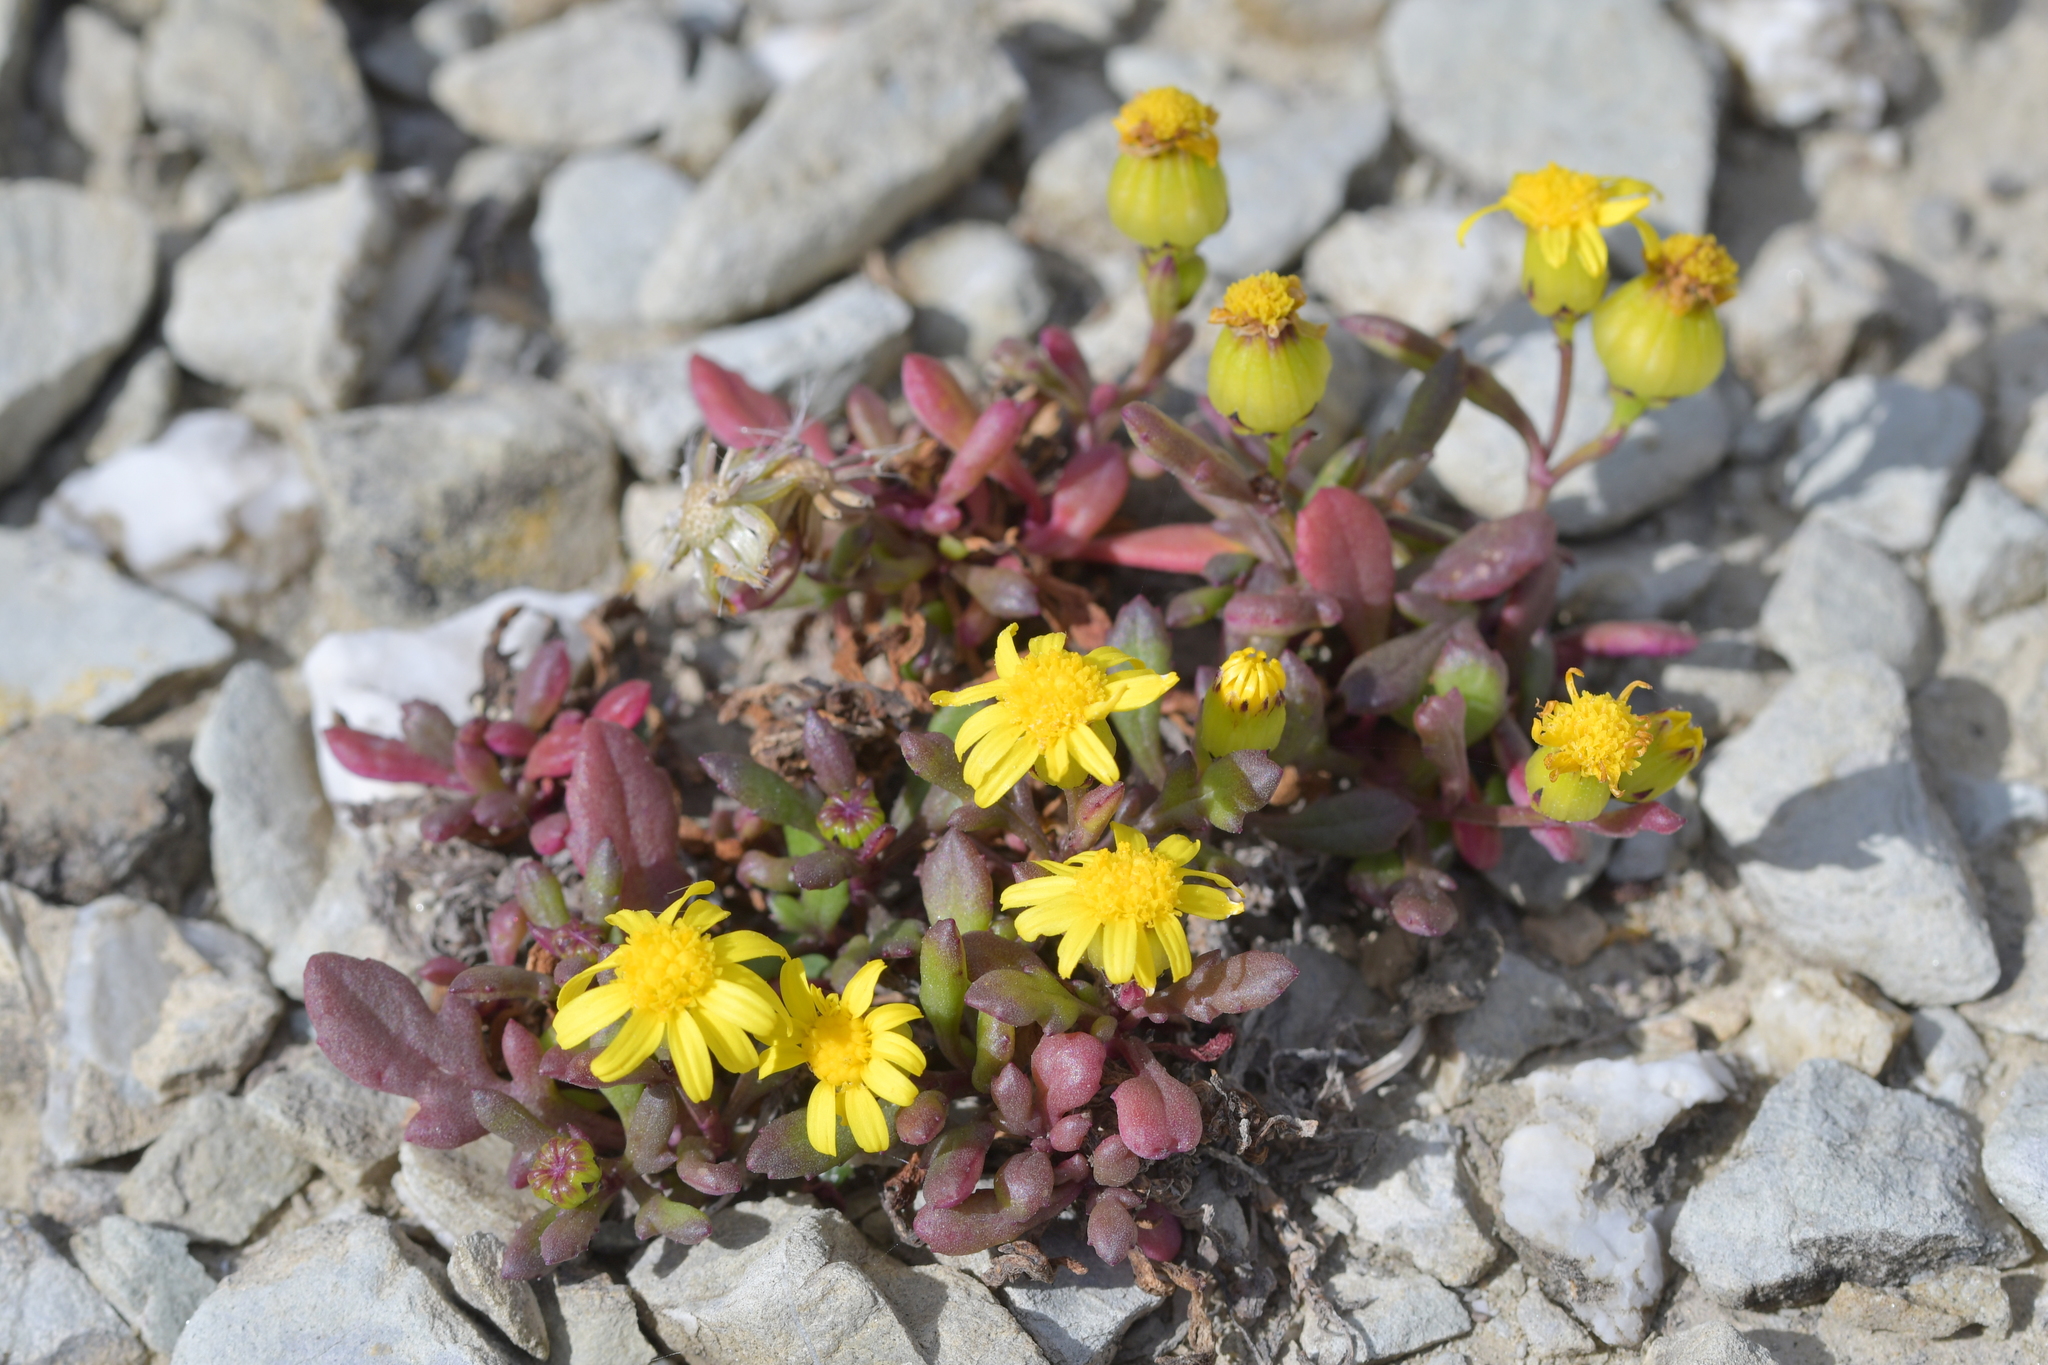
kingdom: Plantae
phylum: Tracheophyta
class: Magnoliopsida
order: Asterales
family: Asteraceae
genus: Senecio
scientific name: Senecio lautus
